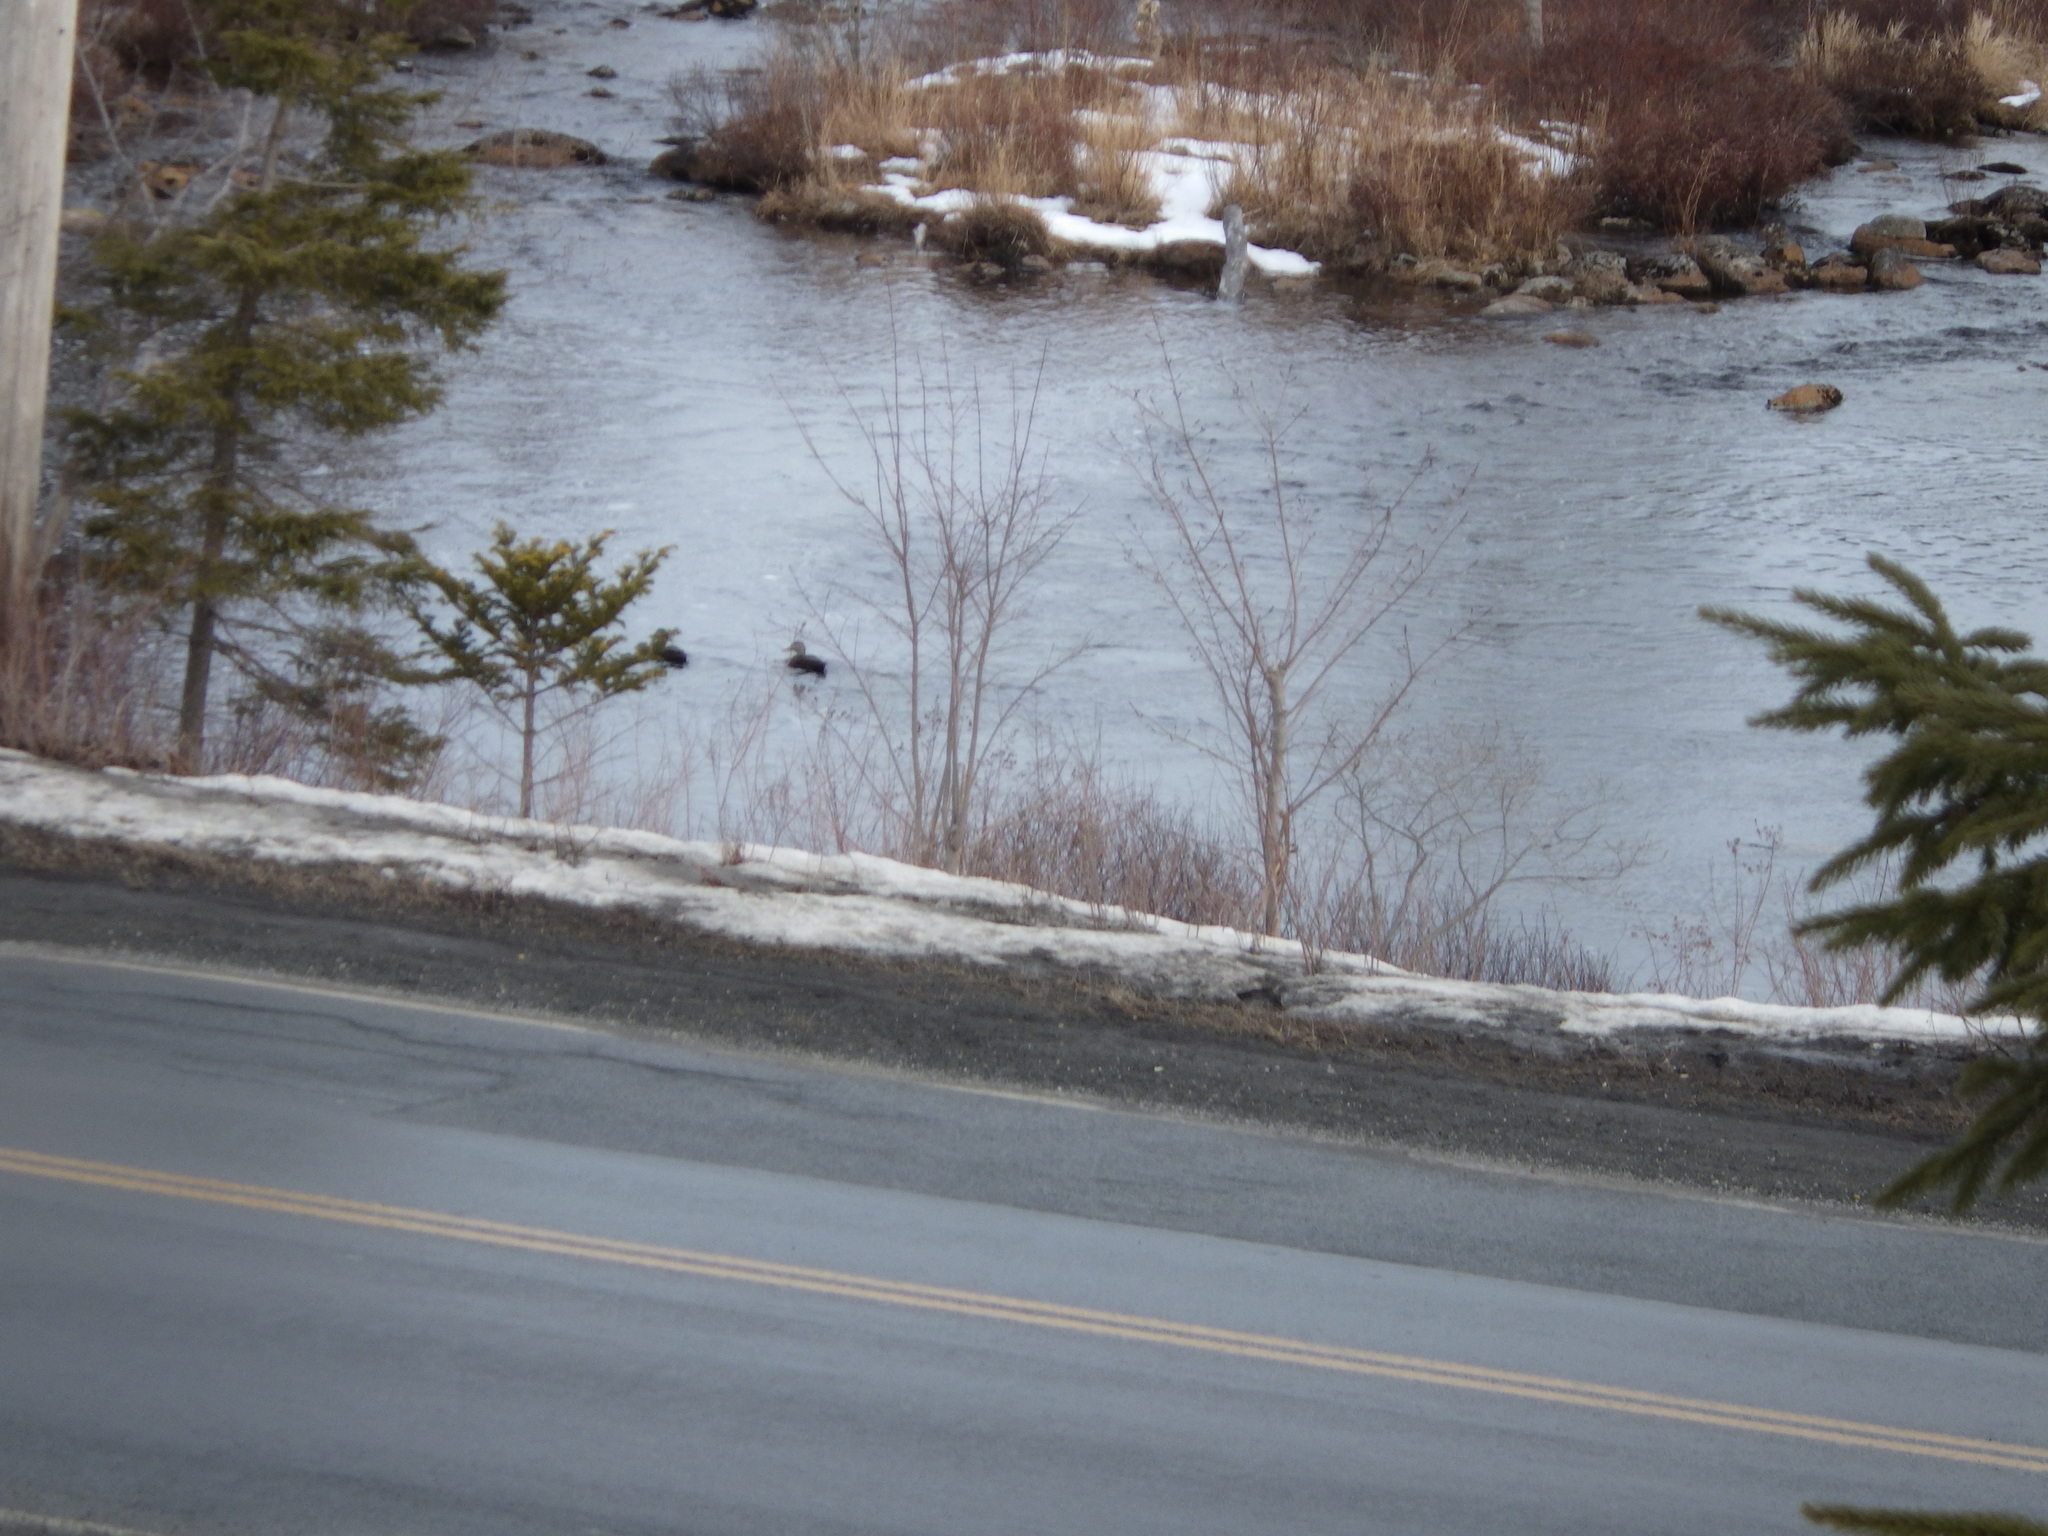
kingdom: Animalia
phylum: Chordata
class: Aves
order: Anseriformes
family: Anatidae
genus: Anas
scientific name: Anas rubripes
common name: American black duck
